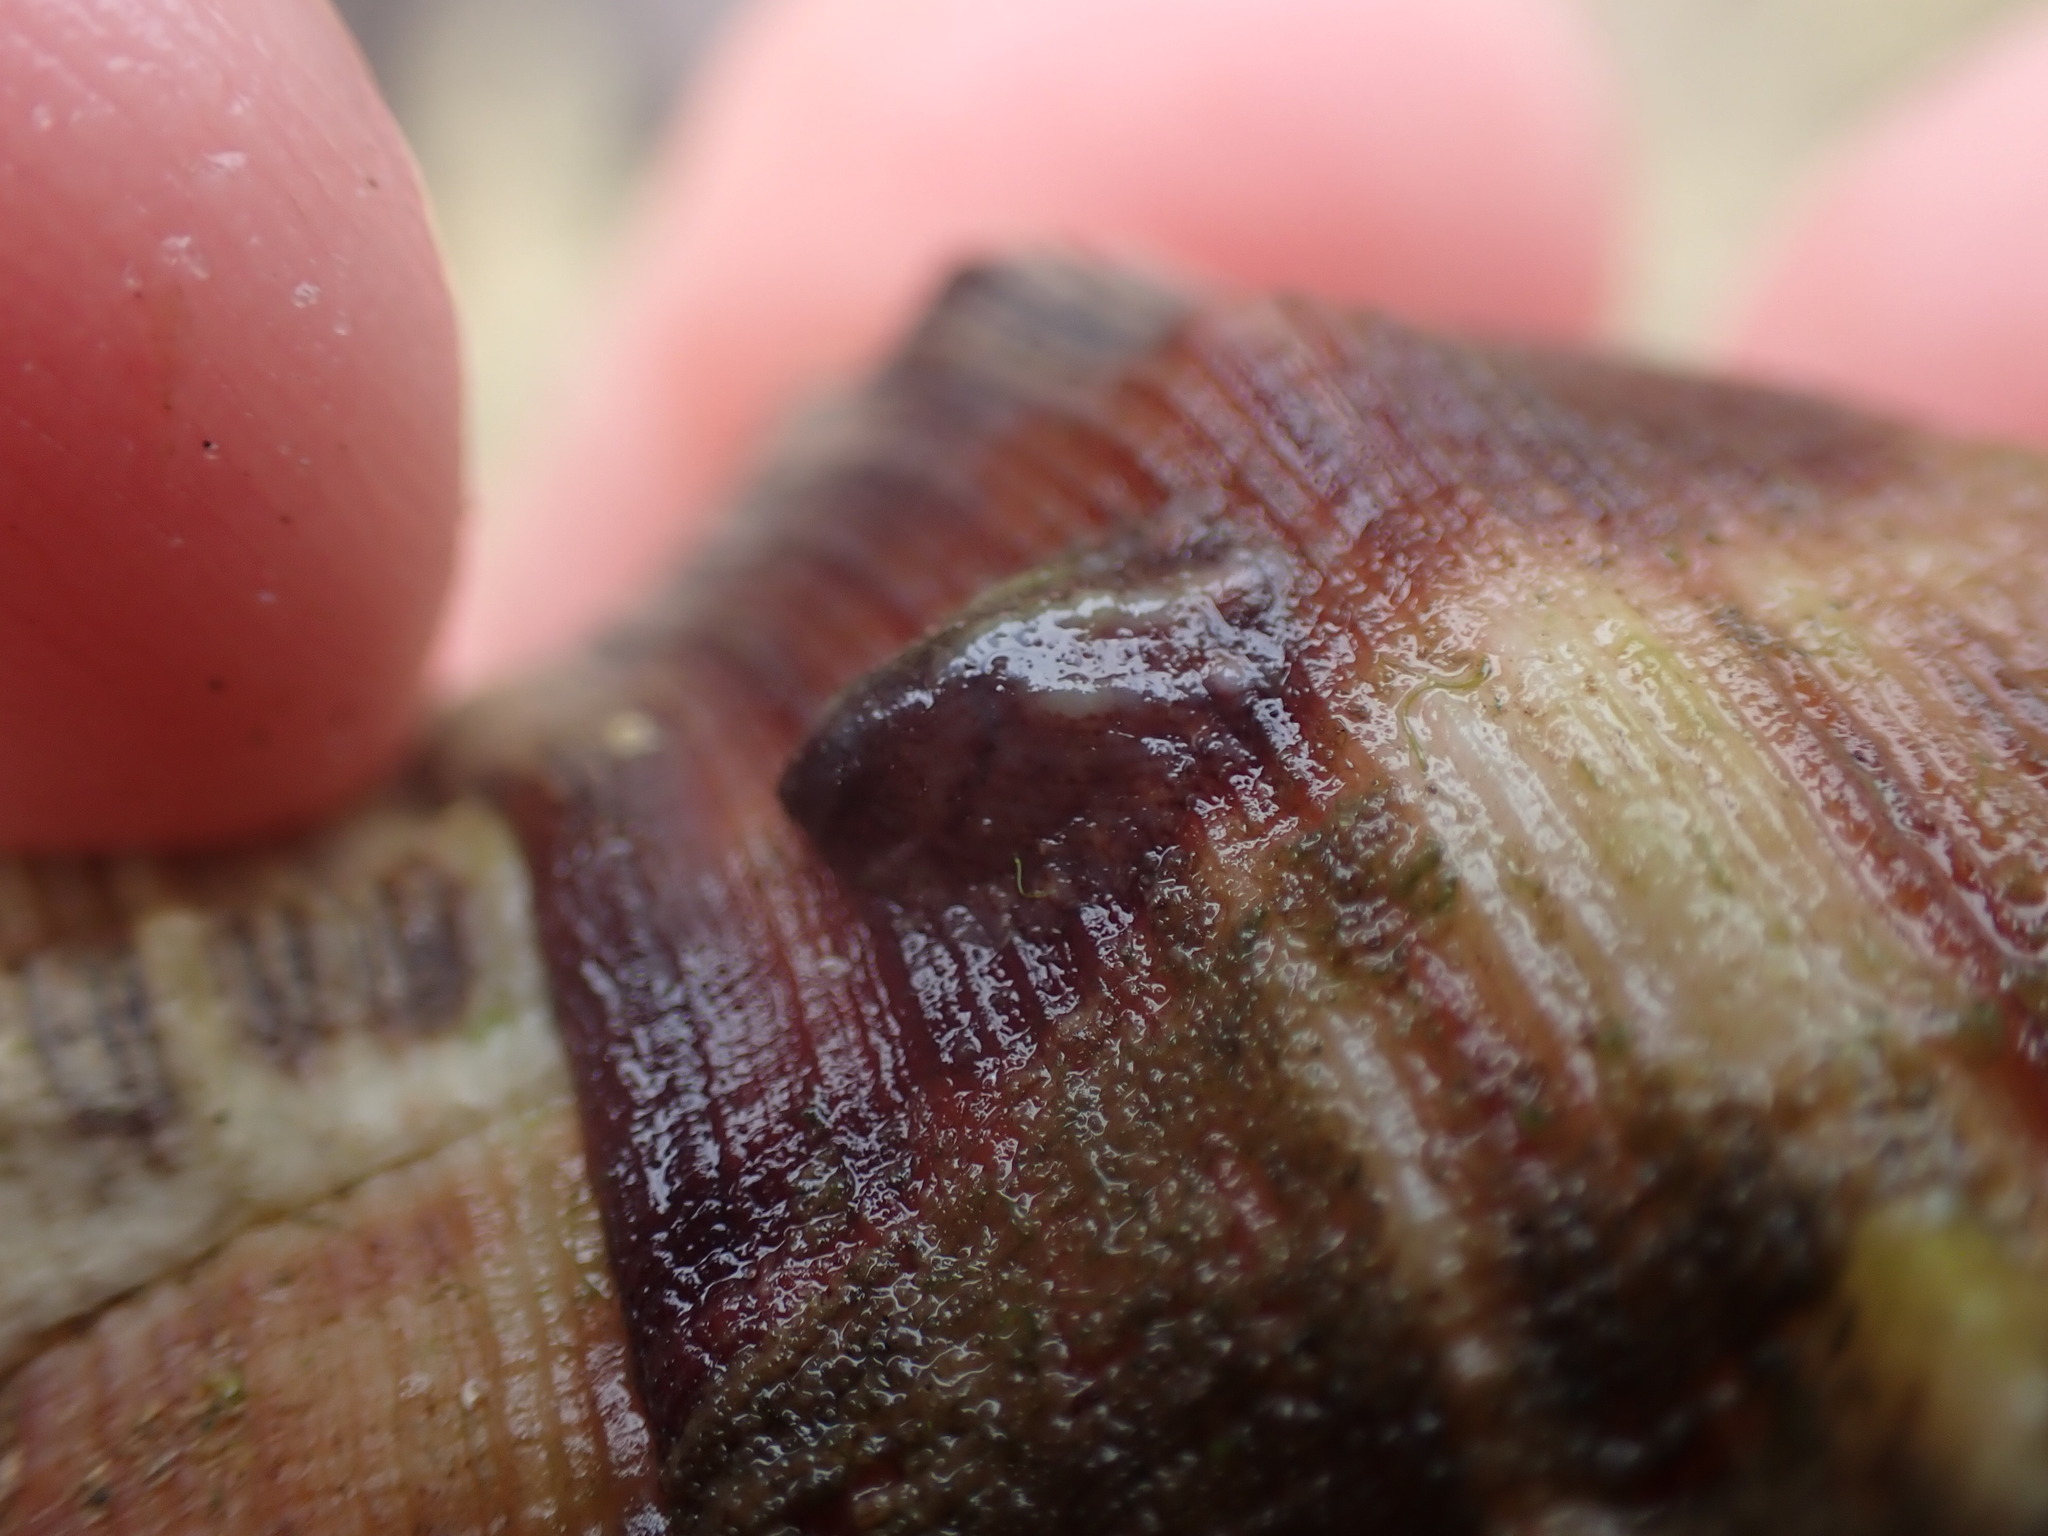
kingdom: Animalia
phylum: Mollusca
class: Gastropoda
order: Littorinimorpha
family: Calyptraeidae
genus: Maoricrypta
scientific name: Maoricrypta costata
